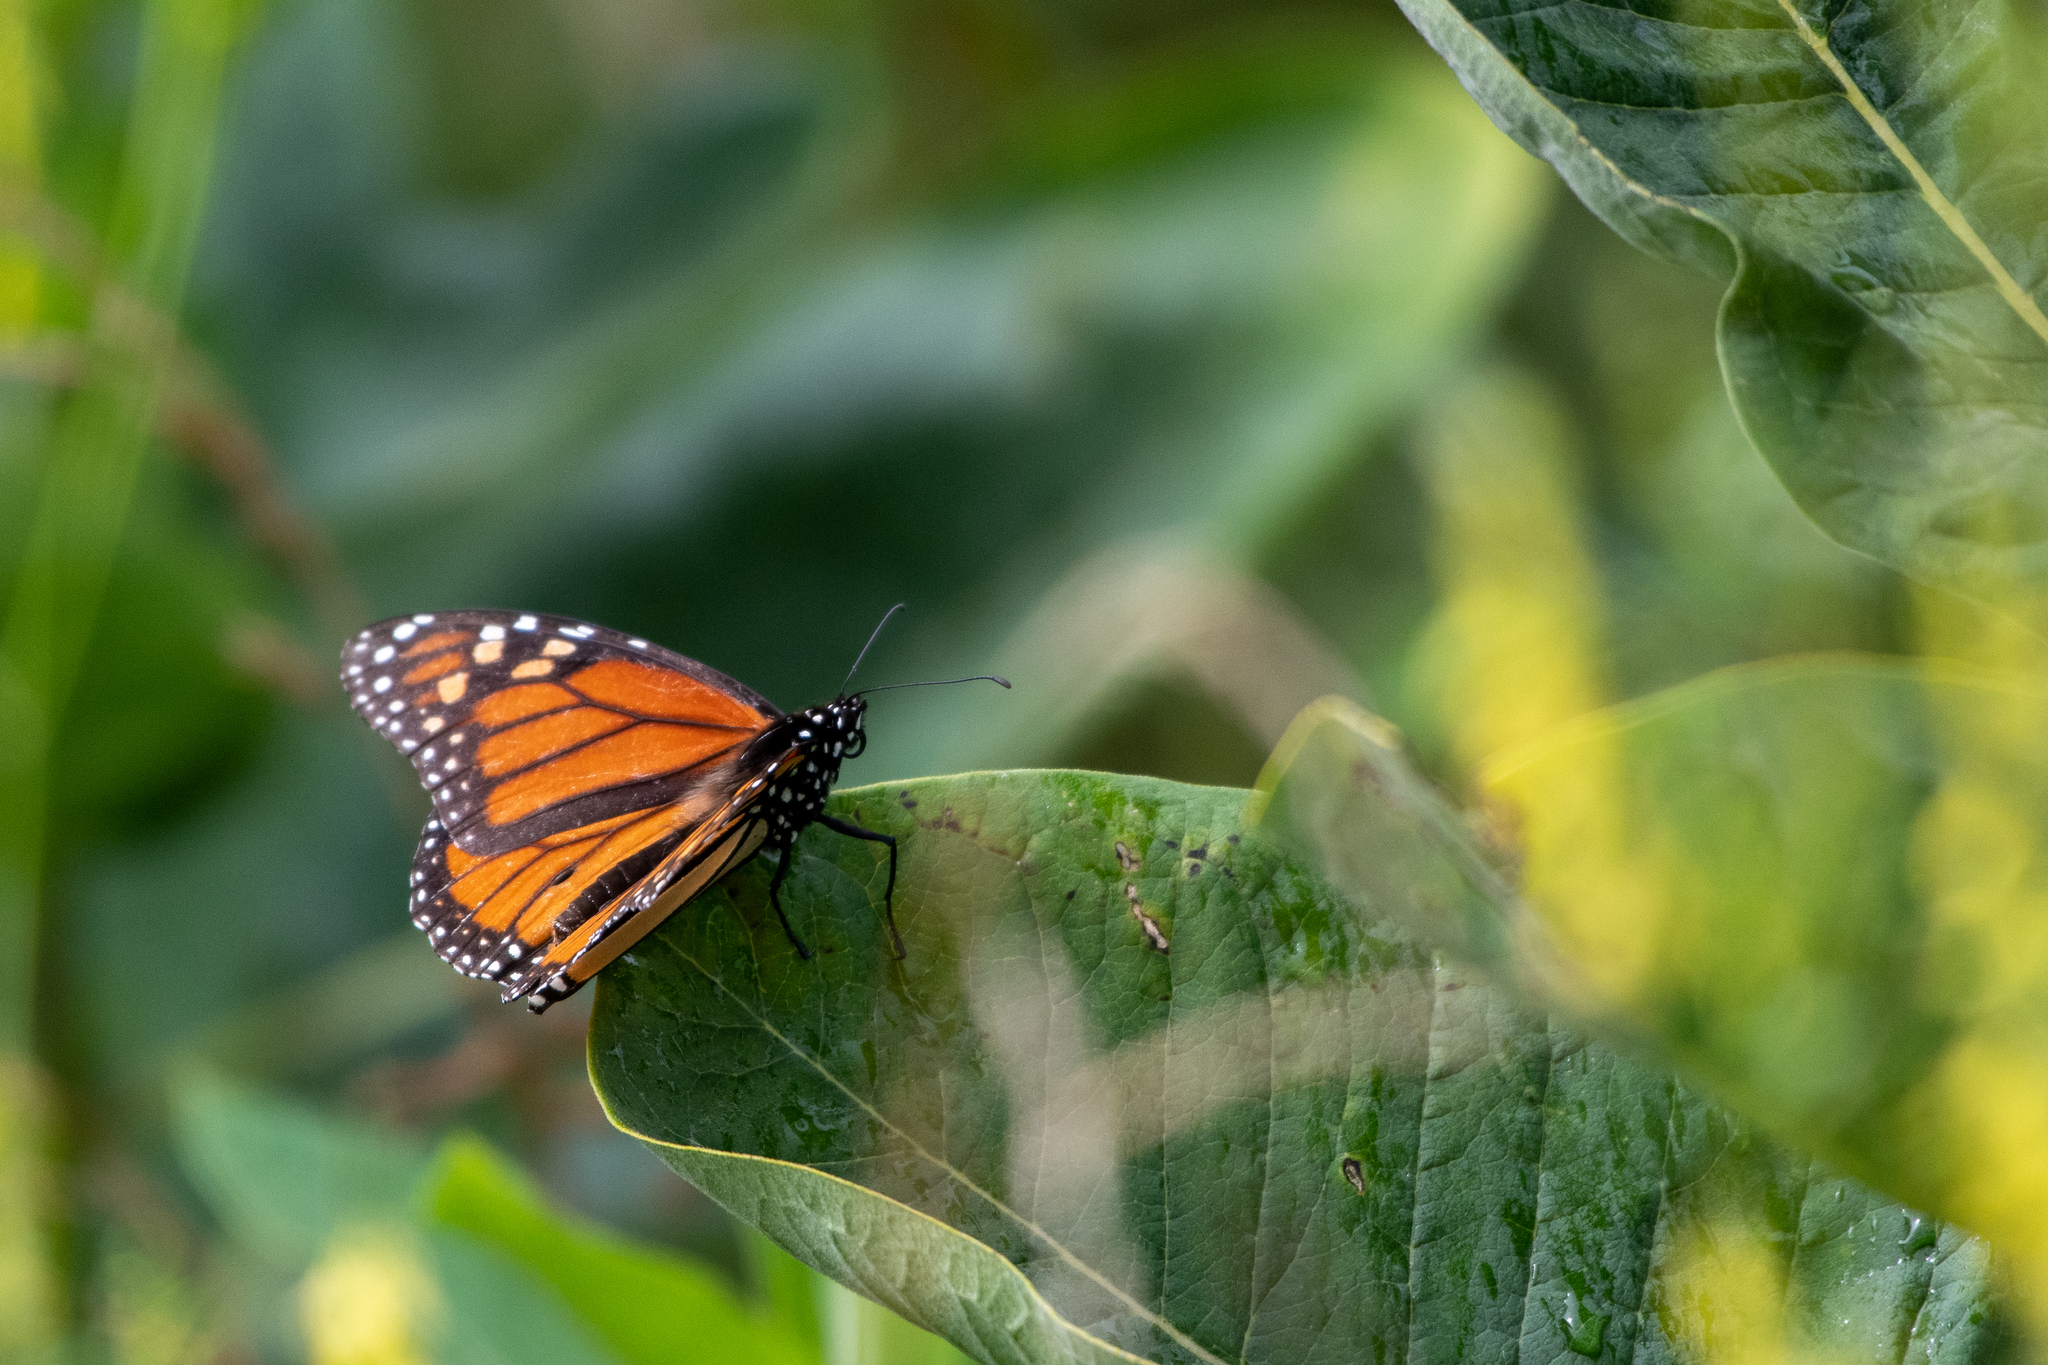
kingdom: Animalia
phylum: Arthropoda
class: Insecta
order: Lepidoptera
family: Nymphalidae
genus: Danaus
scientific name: Danaus plexippus
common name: Monarch
